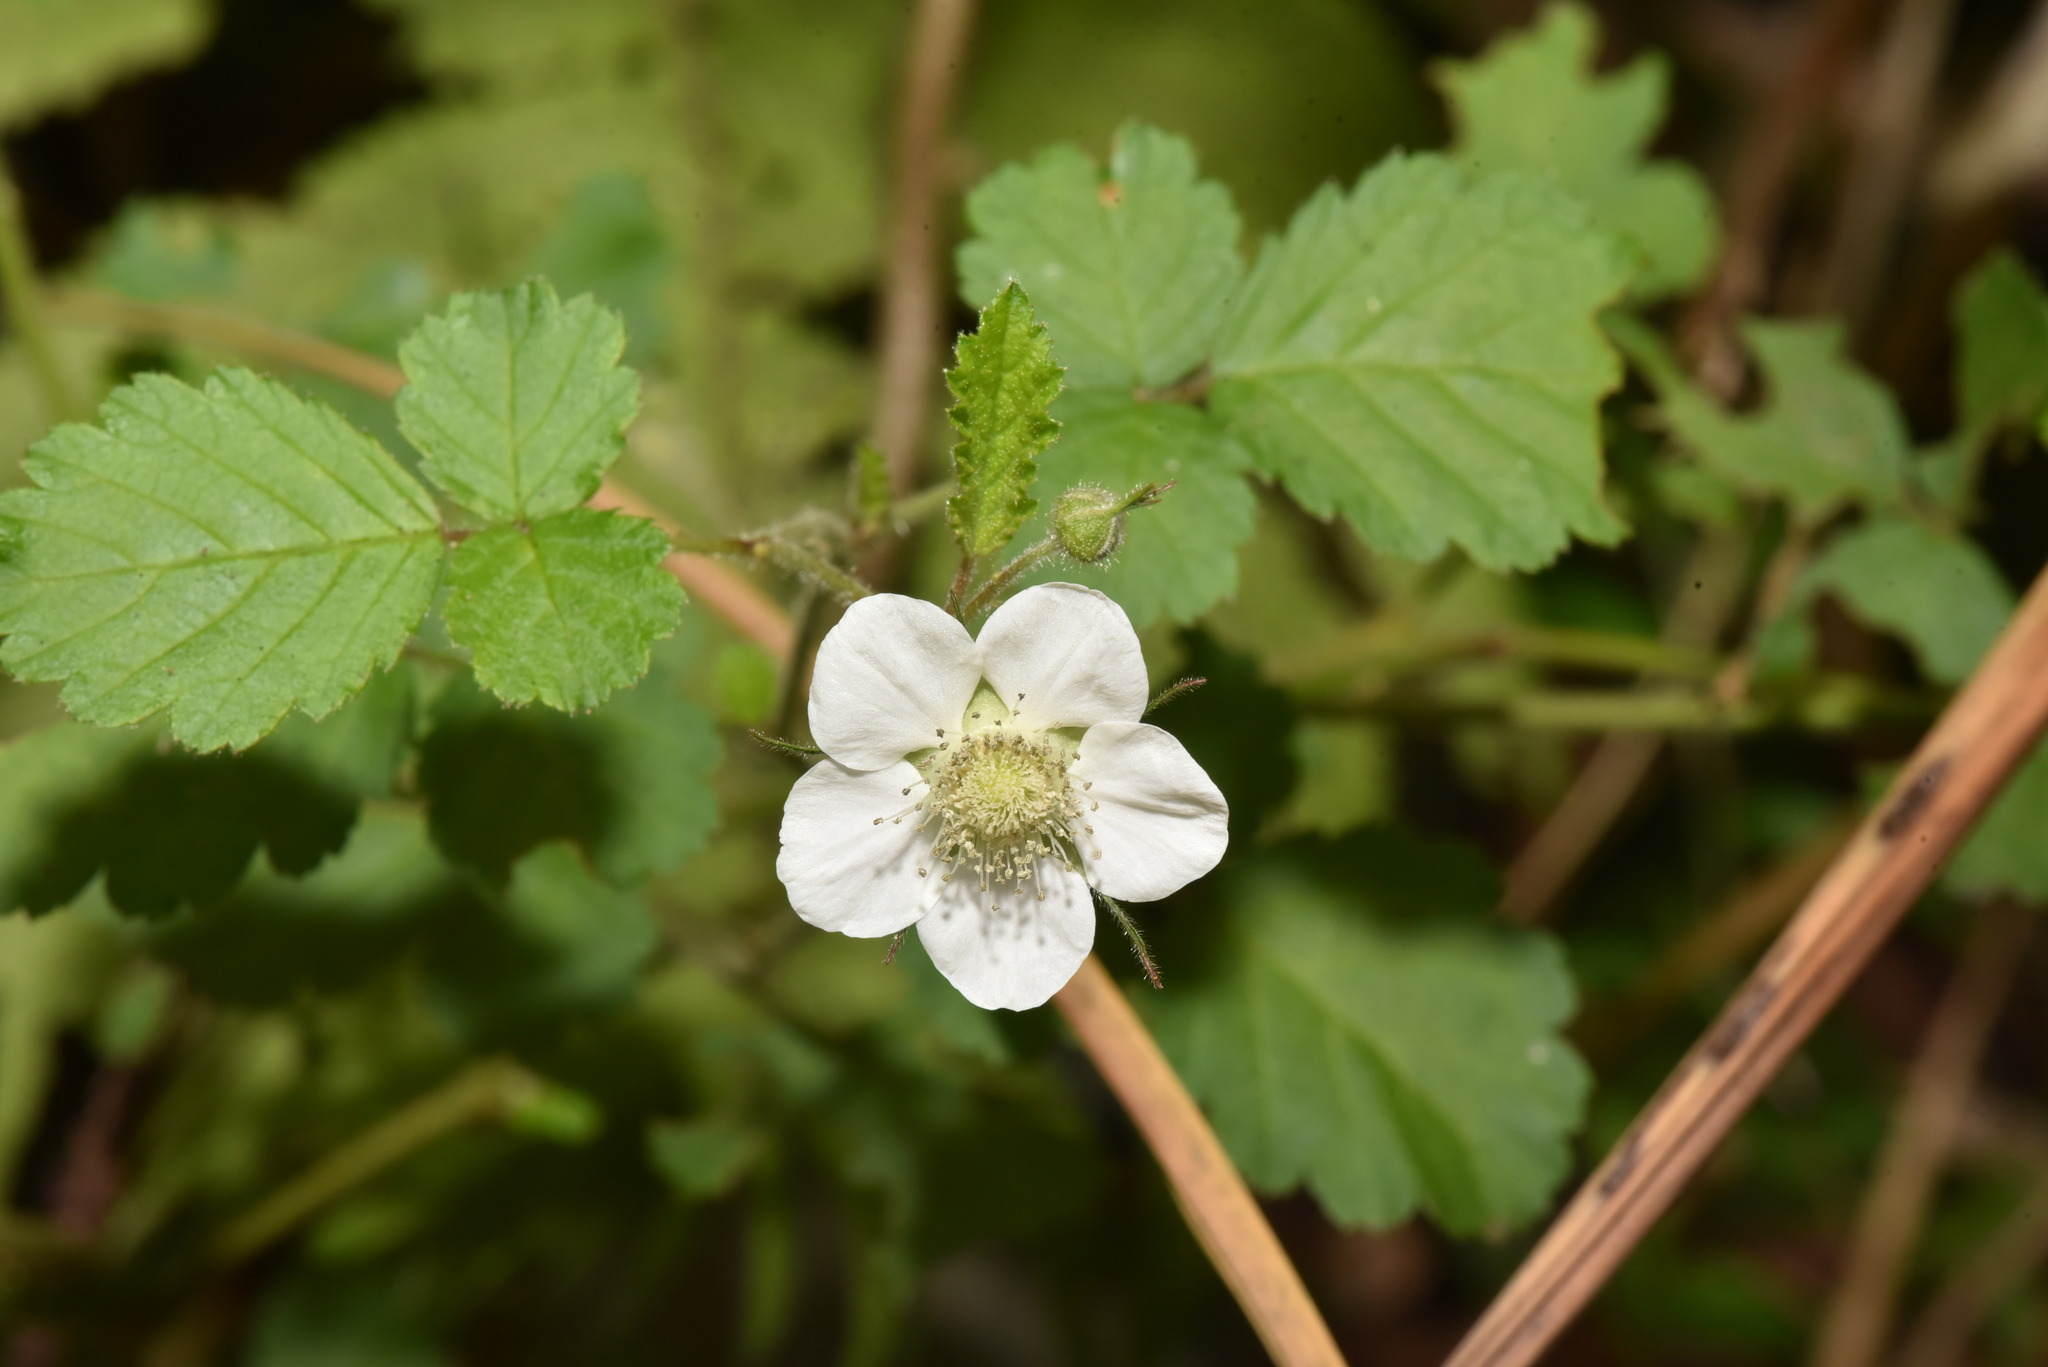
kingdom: Plantae
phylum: Tracheophyta
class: Magnoliopsida
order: Rosales
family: Rosaceae
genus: Rubus
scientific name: Rubus rosifolius
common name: Roseleaf raspberry
